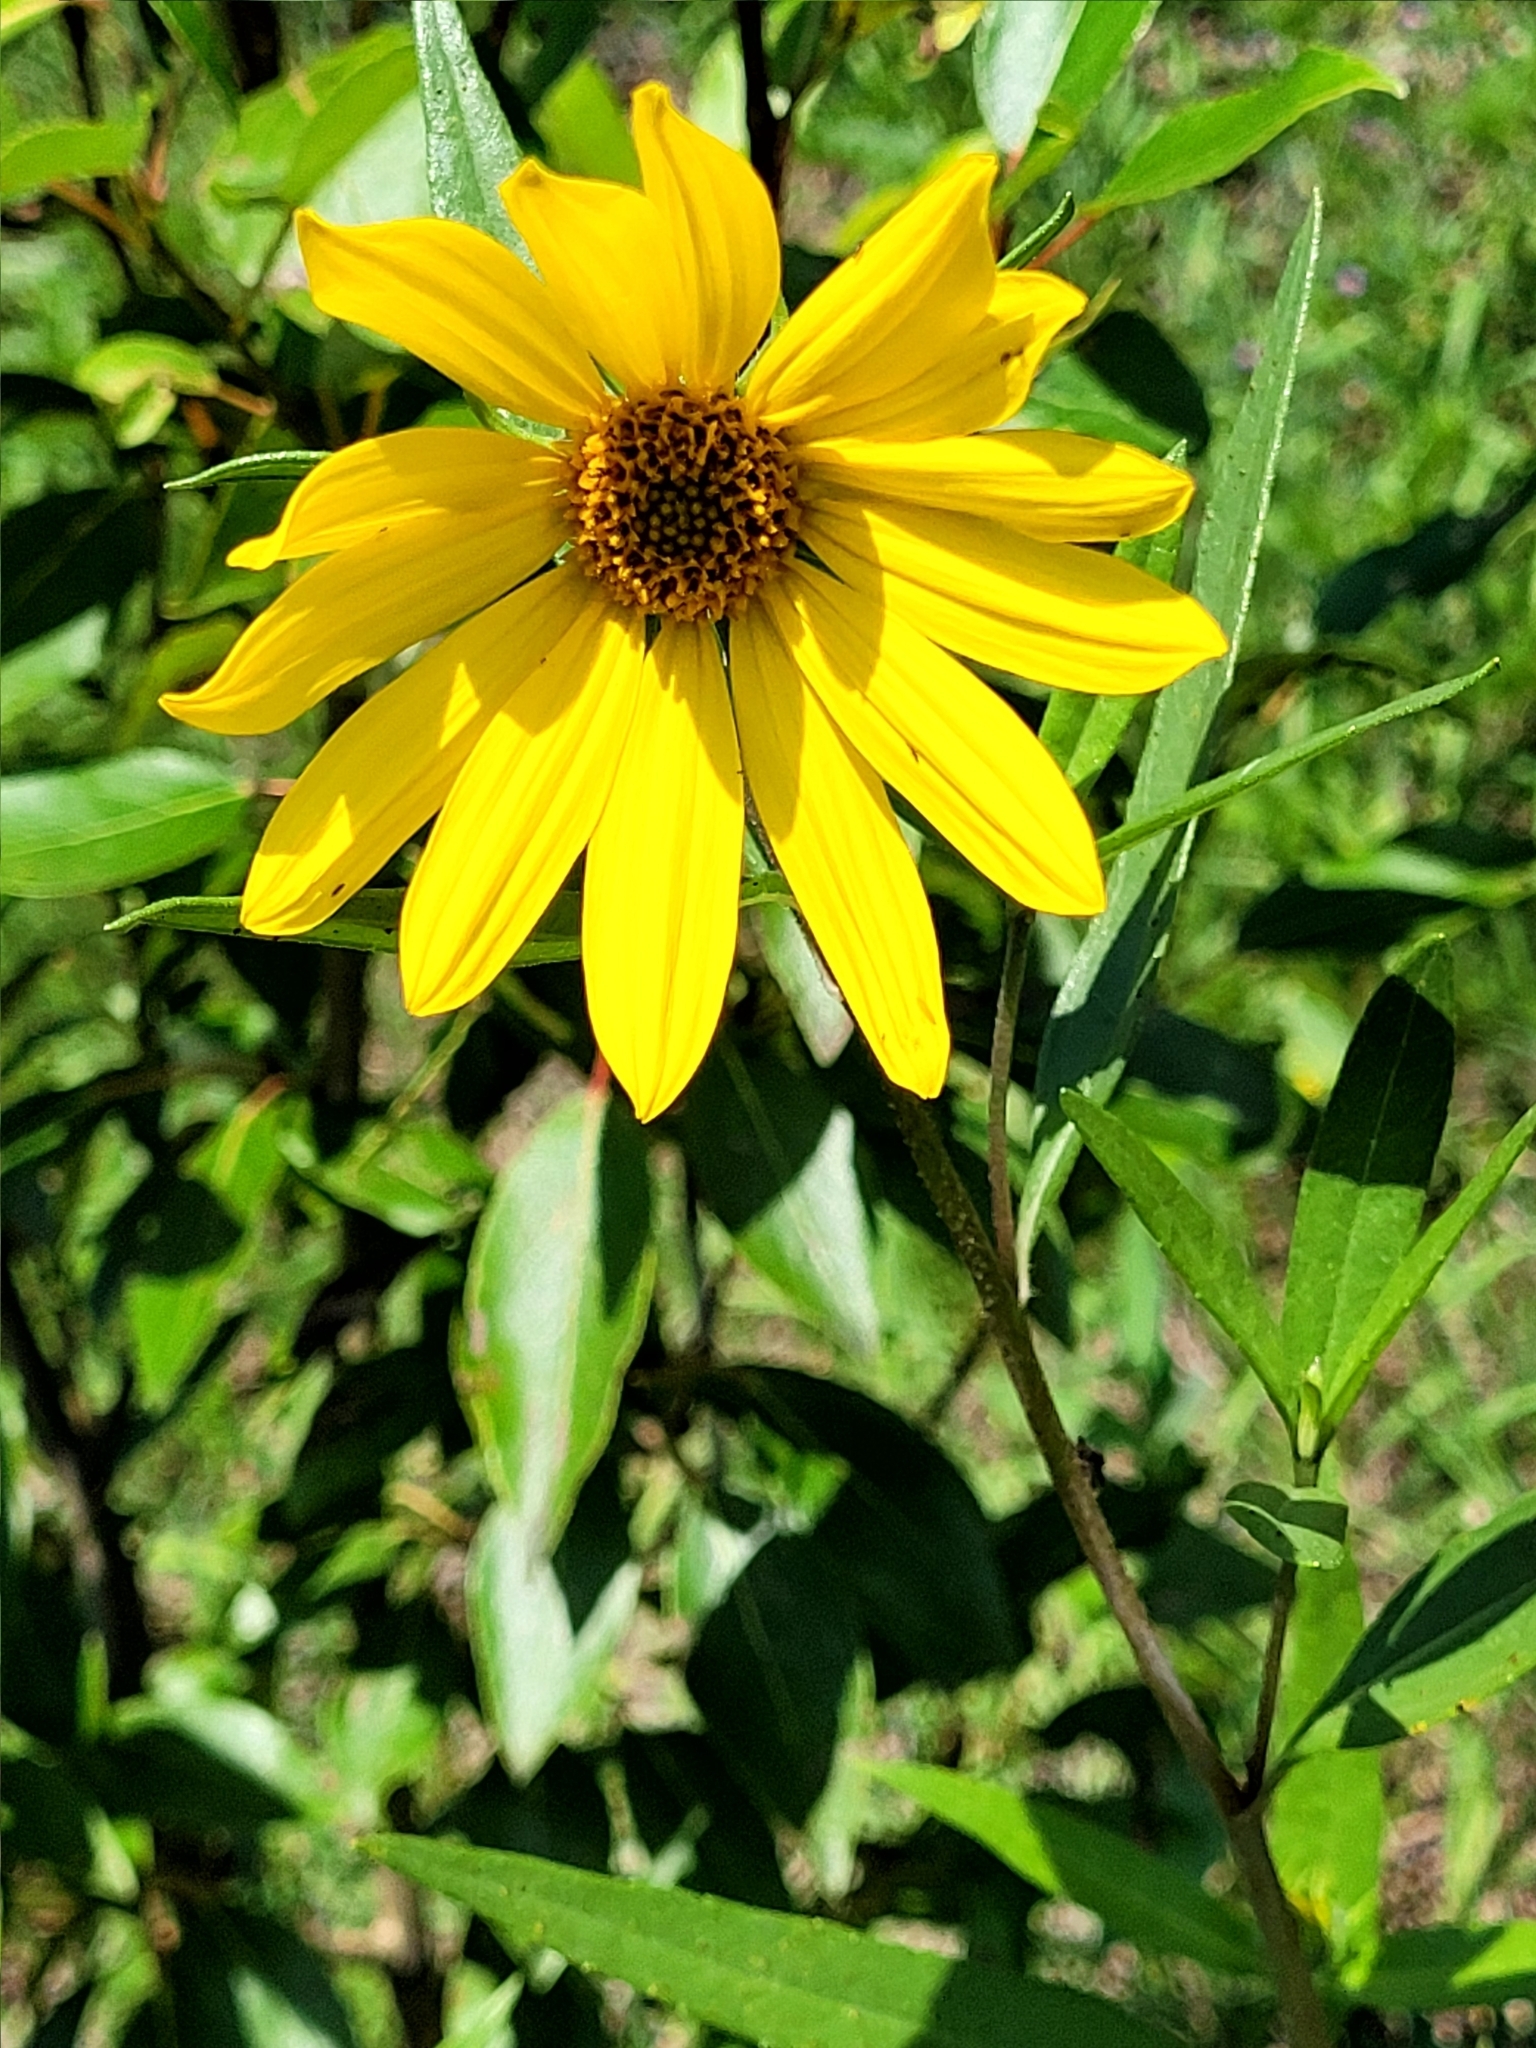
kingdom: Plantae
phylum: Tracheophyta
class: Magnoliopsida
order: Asterales
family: Asteraceae
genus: Helianthus
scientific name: Helianthus nuttallii
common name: Nuttall's sunflower
